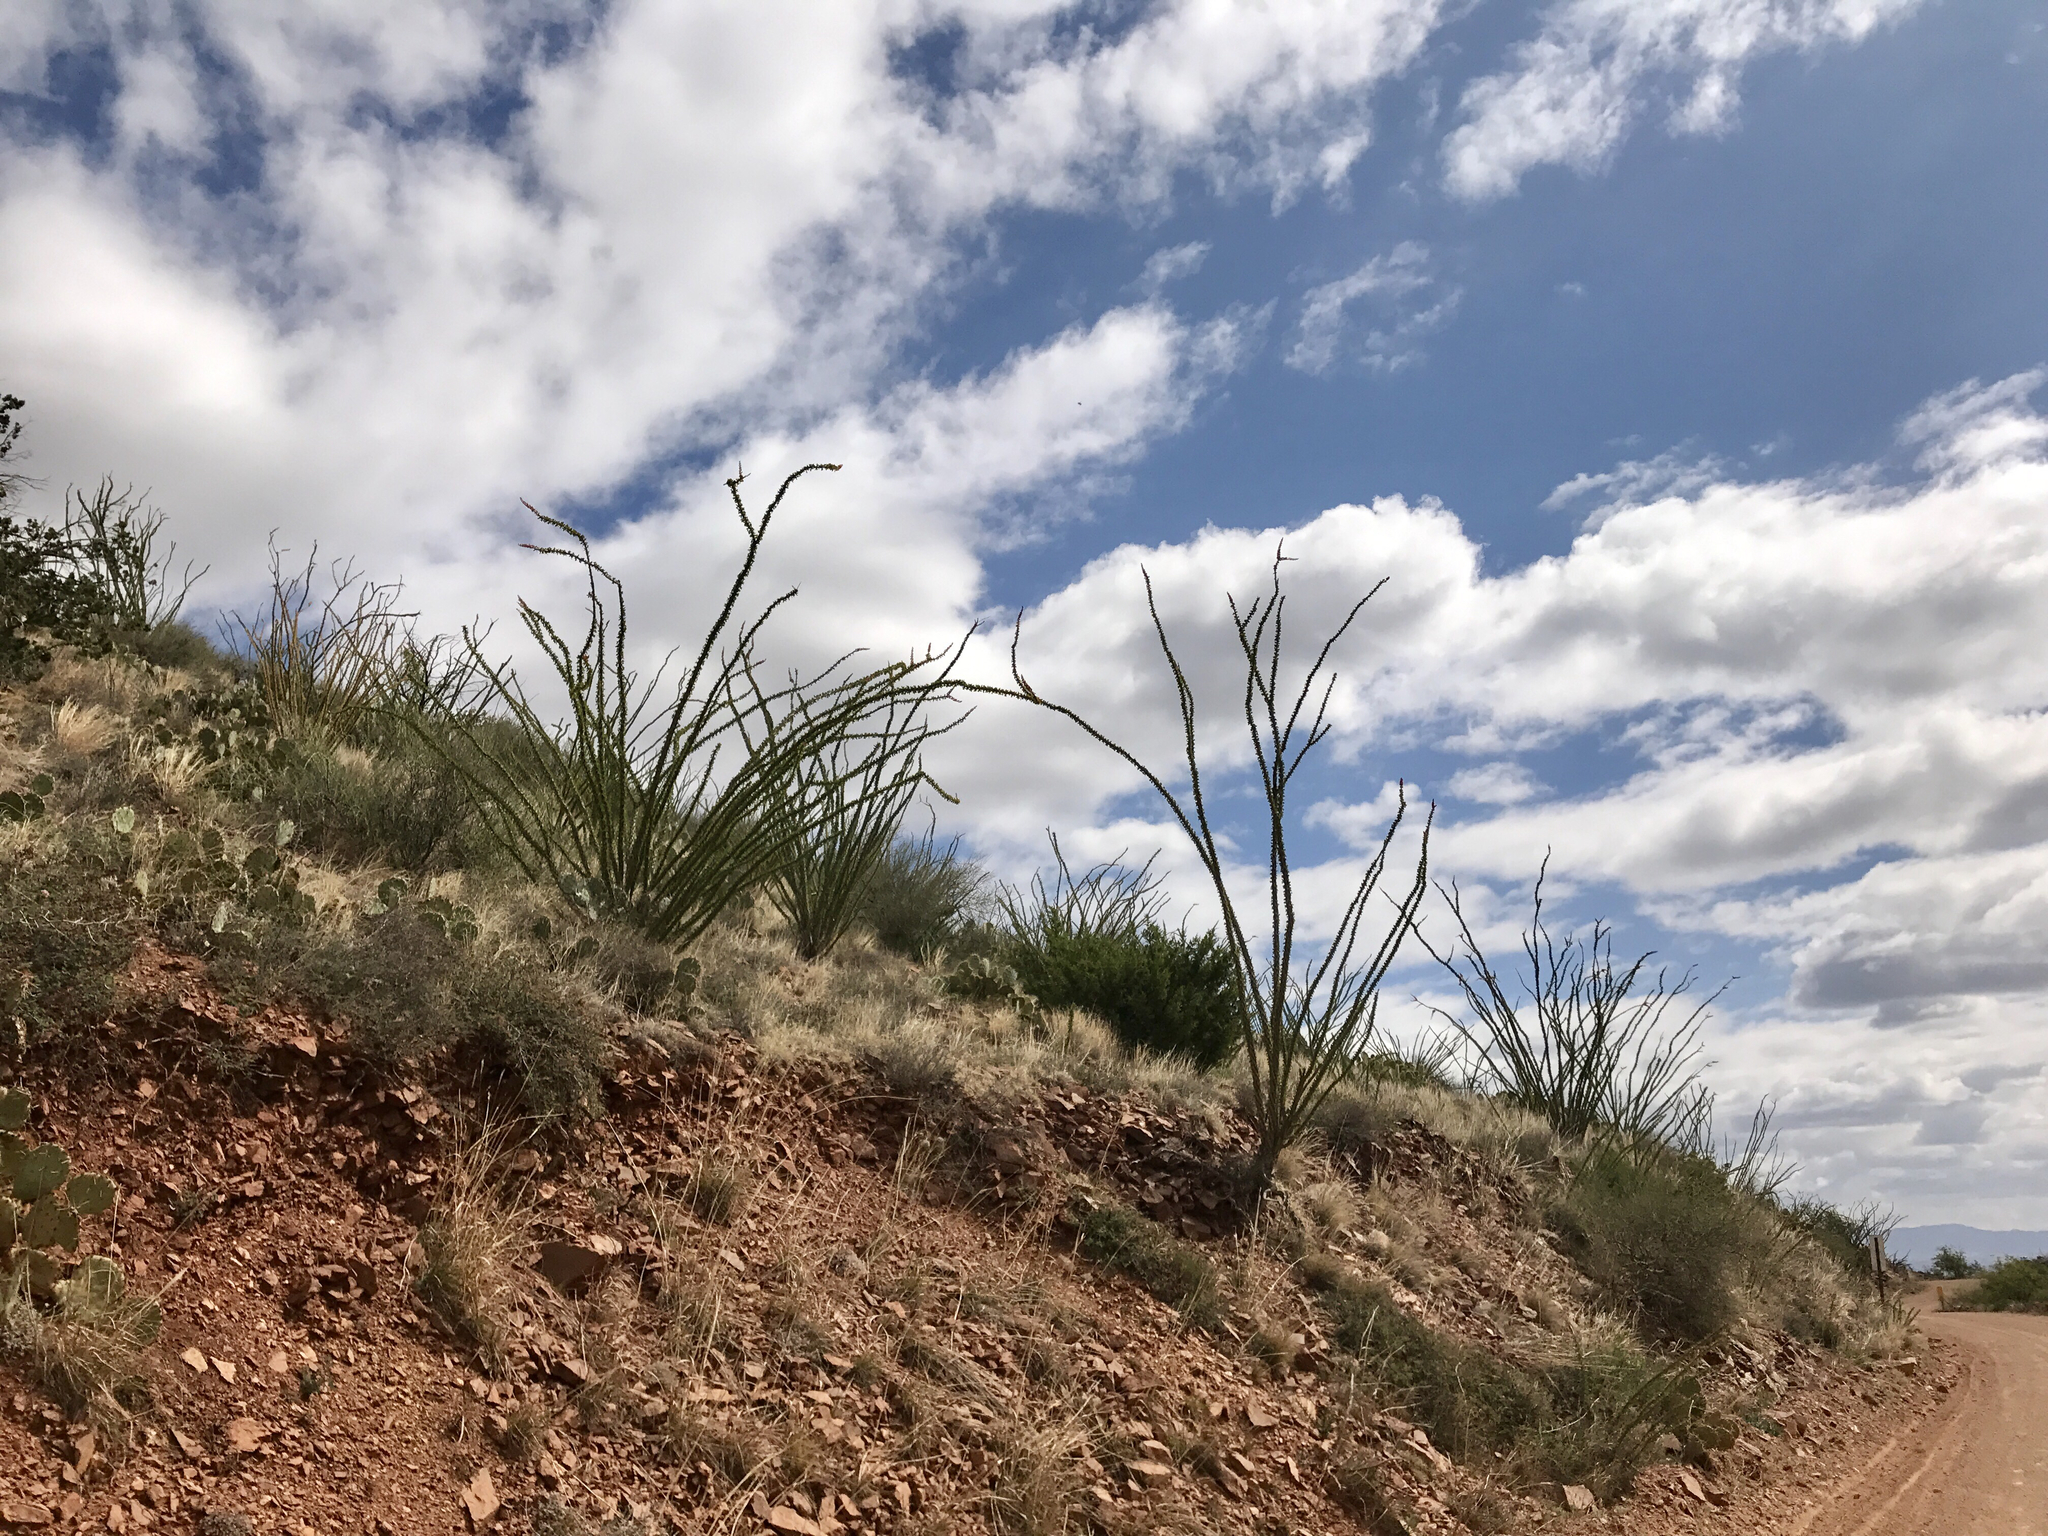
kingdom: Plantae
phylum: Tracheophyta
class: Magnoliopsida
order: Ericales
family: Fouquieriaceae
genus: Fouquieria
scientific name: Fouquieria splendens
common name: Vine-cactus
